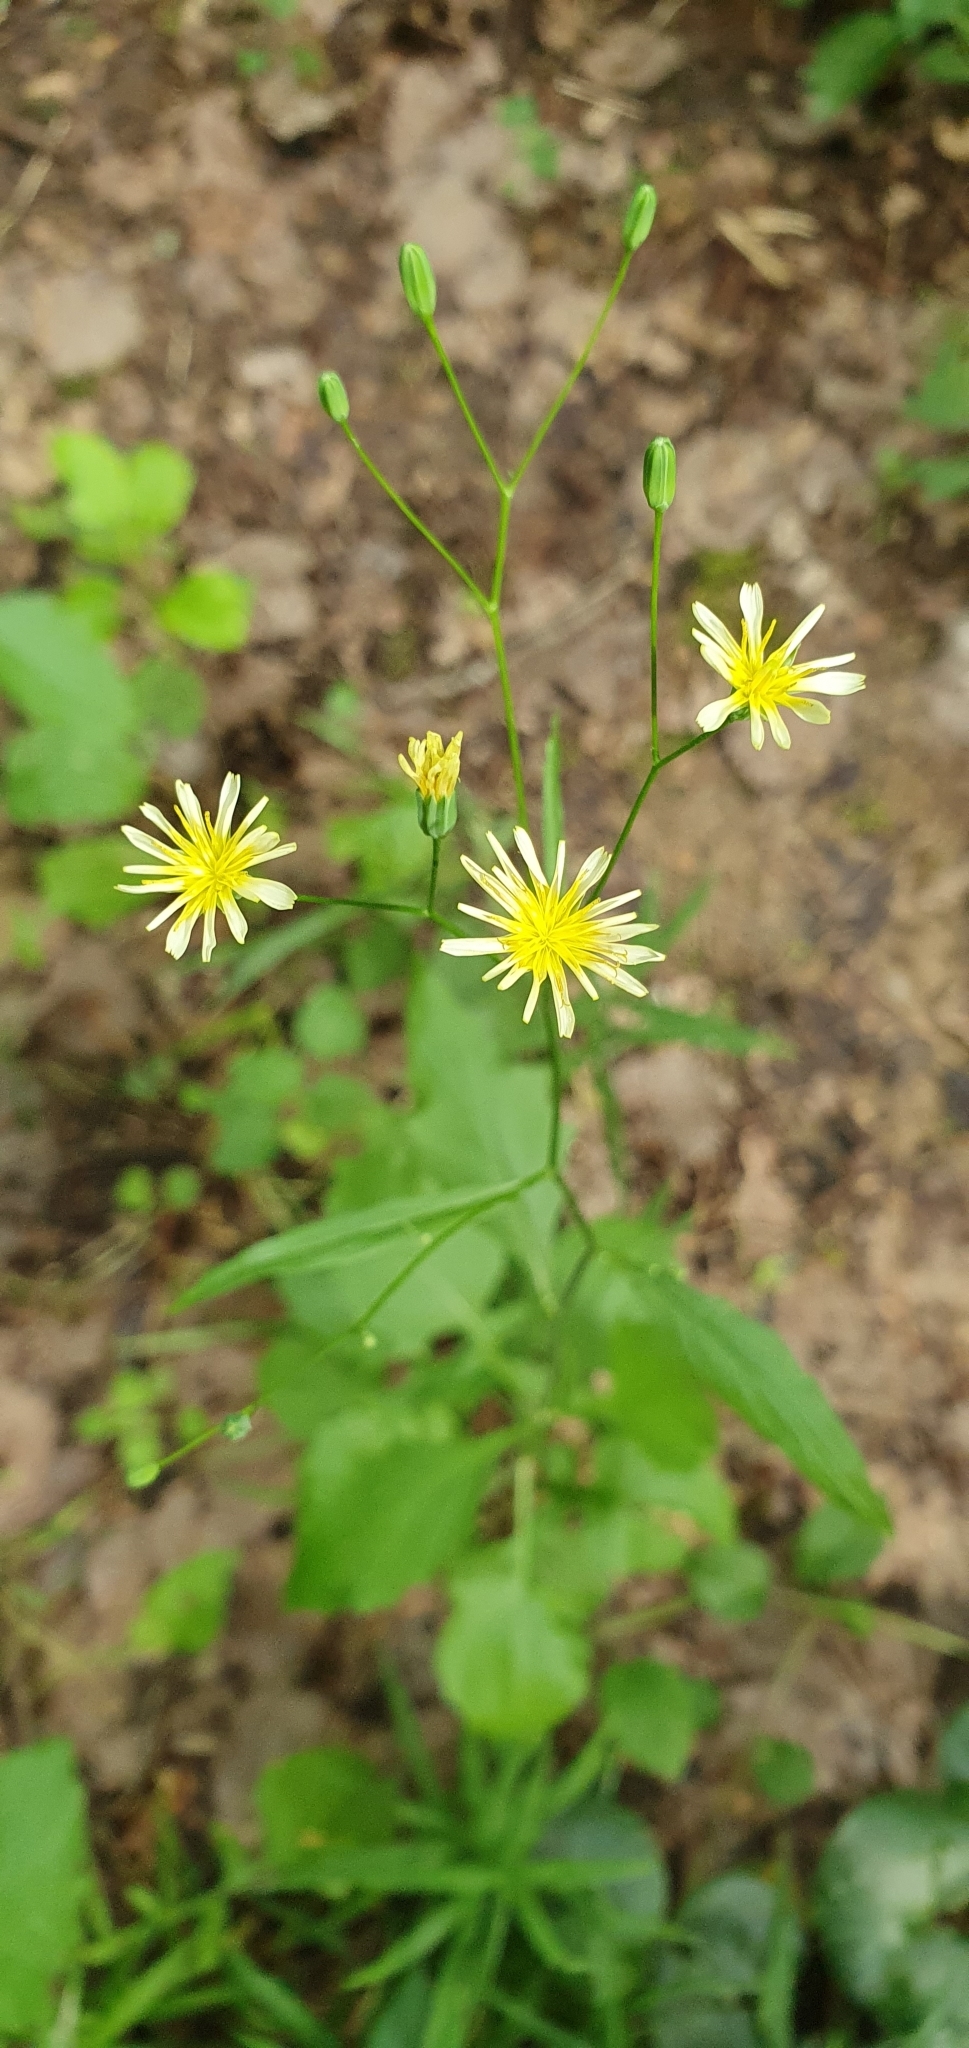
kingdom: Plantae
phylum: Tracheophyta
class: Magnoliopsida
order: Asterales
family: Asteraceae
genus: Lapsana
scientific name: Lapsana communis
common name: Nipplewort
